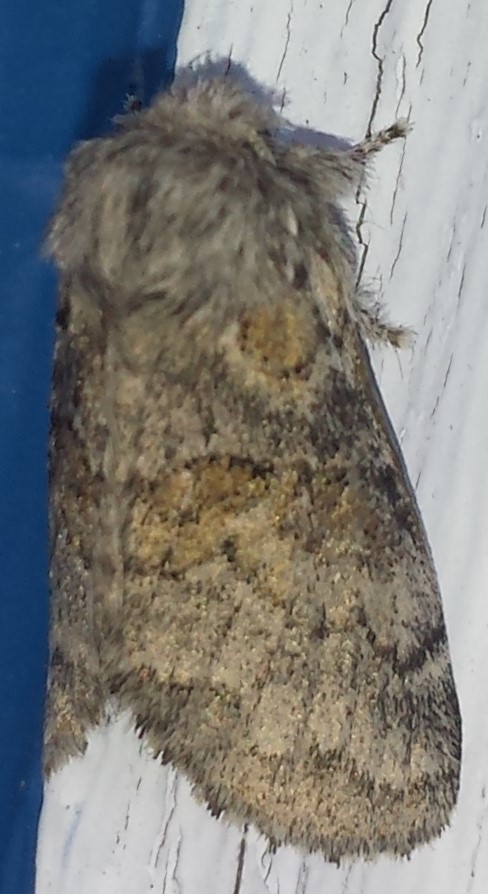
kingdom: Animalia
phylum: Arthropoda
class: Insecta
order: Lepidoptera
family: Notodontidae
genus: Gluphisia
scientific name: Gluphisia septentrionis
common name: Common gluphisia
